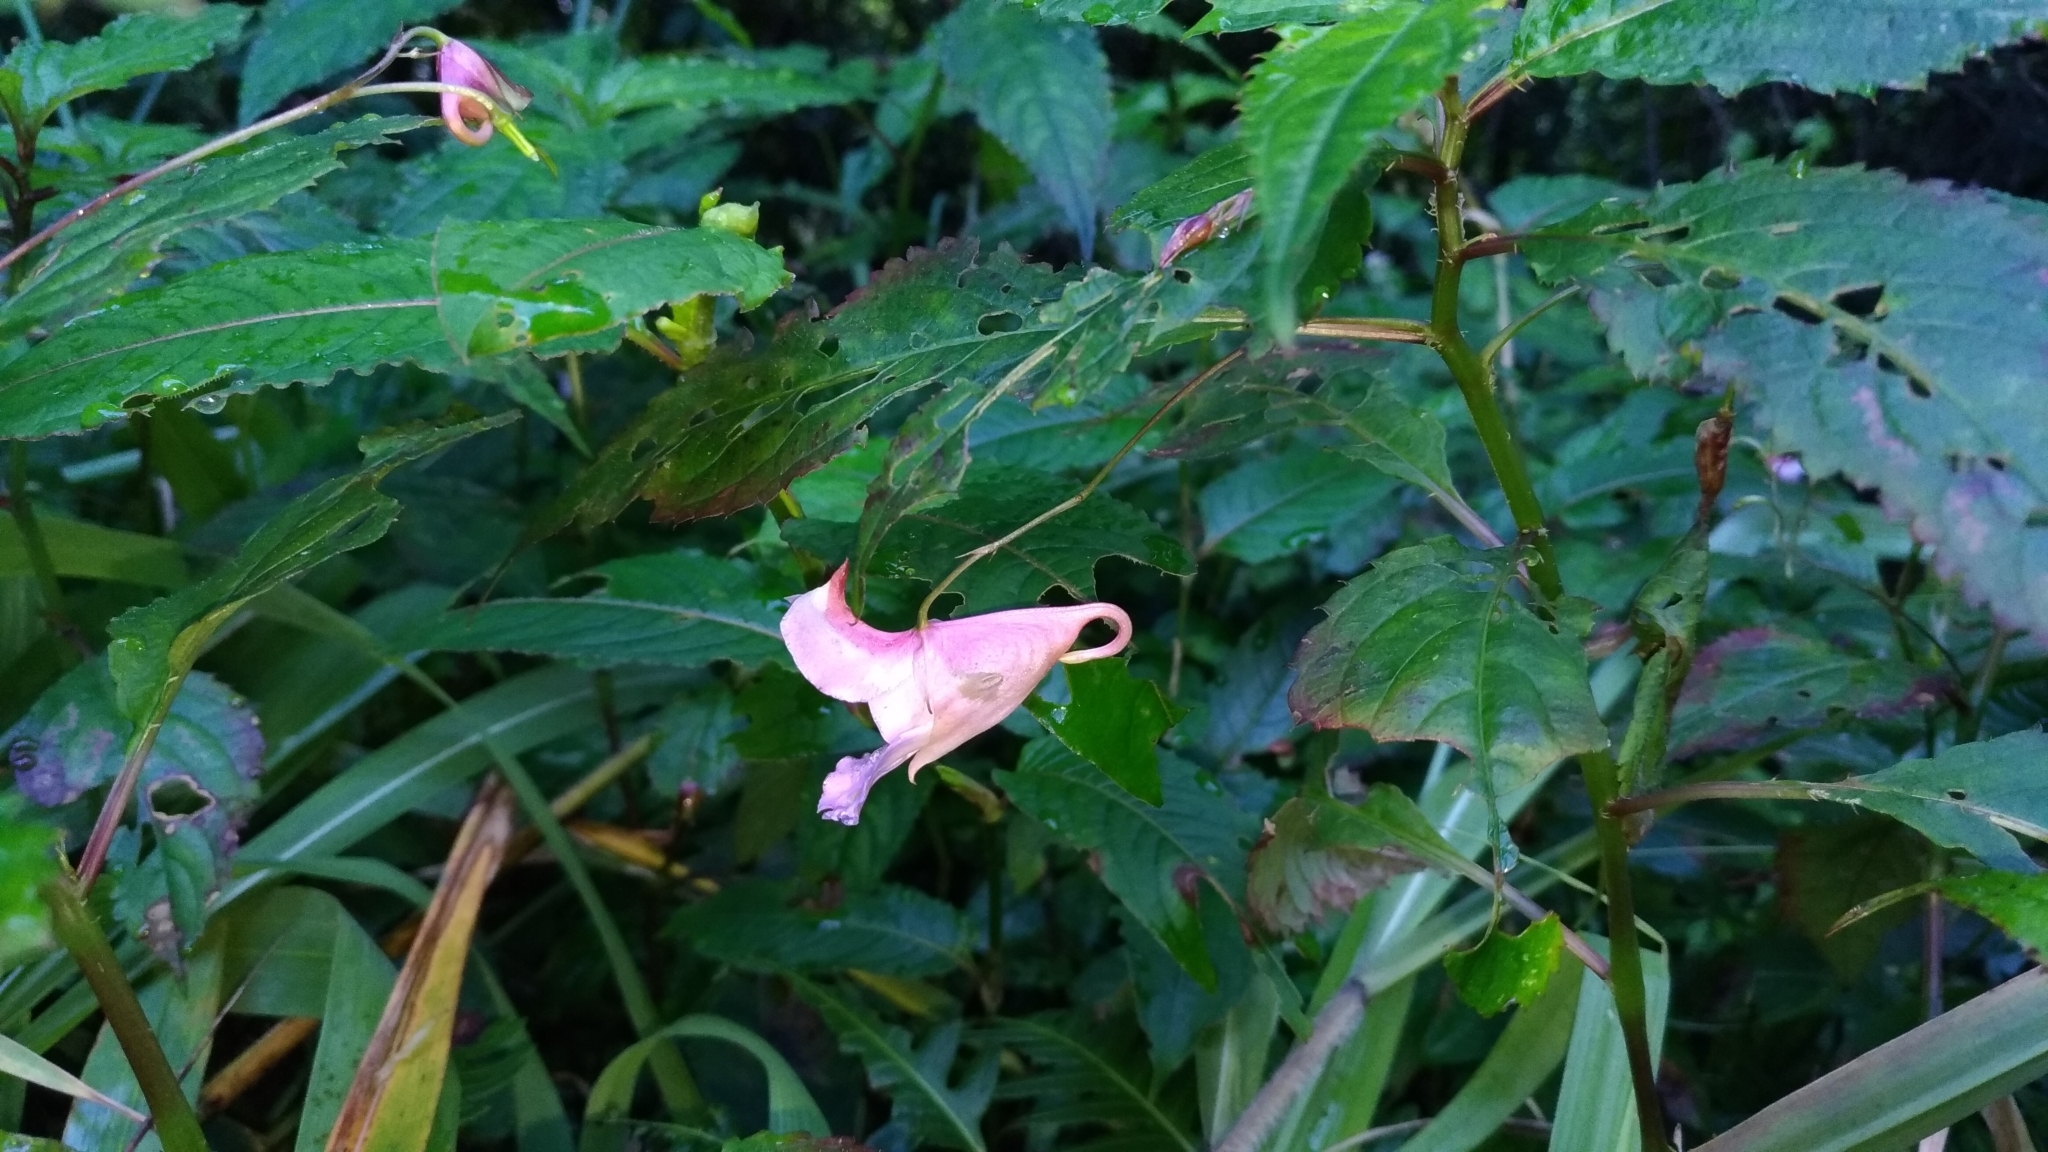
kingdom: Plantae
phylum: Tracheophyta
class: Magnoliopsida
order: Ericales
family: Balsaminaceae
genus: Impatiens
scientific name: Impatiens uniflora
